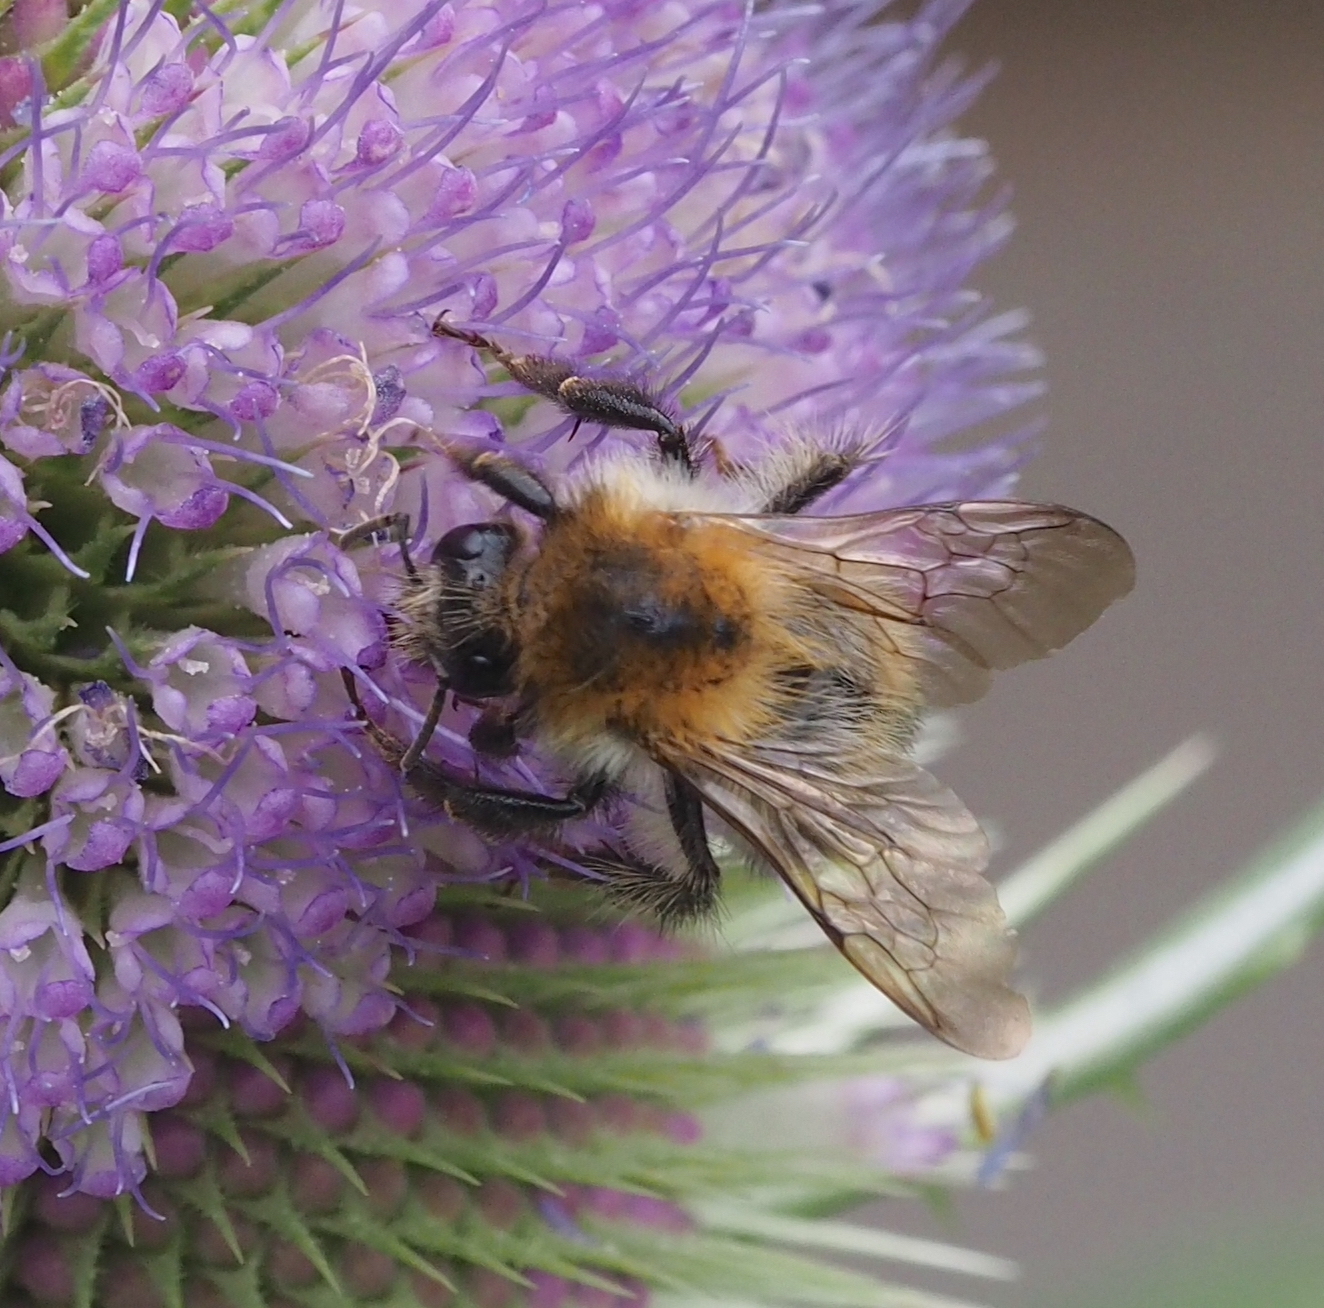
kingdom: Animalia
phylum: Arthropoda
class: Insecta
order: Hymenoptera
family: Apidae
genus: Bombus
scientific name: Bombus pascuorum
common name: Common carder bee
